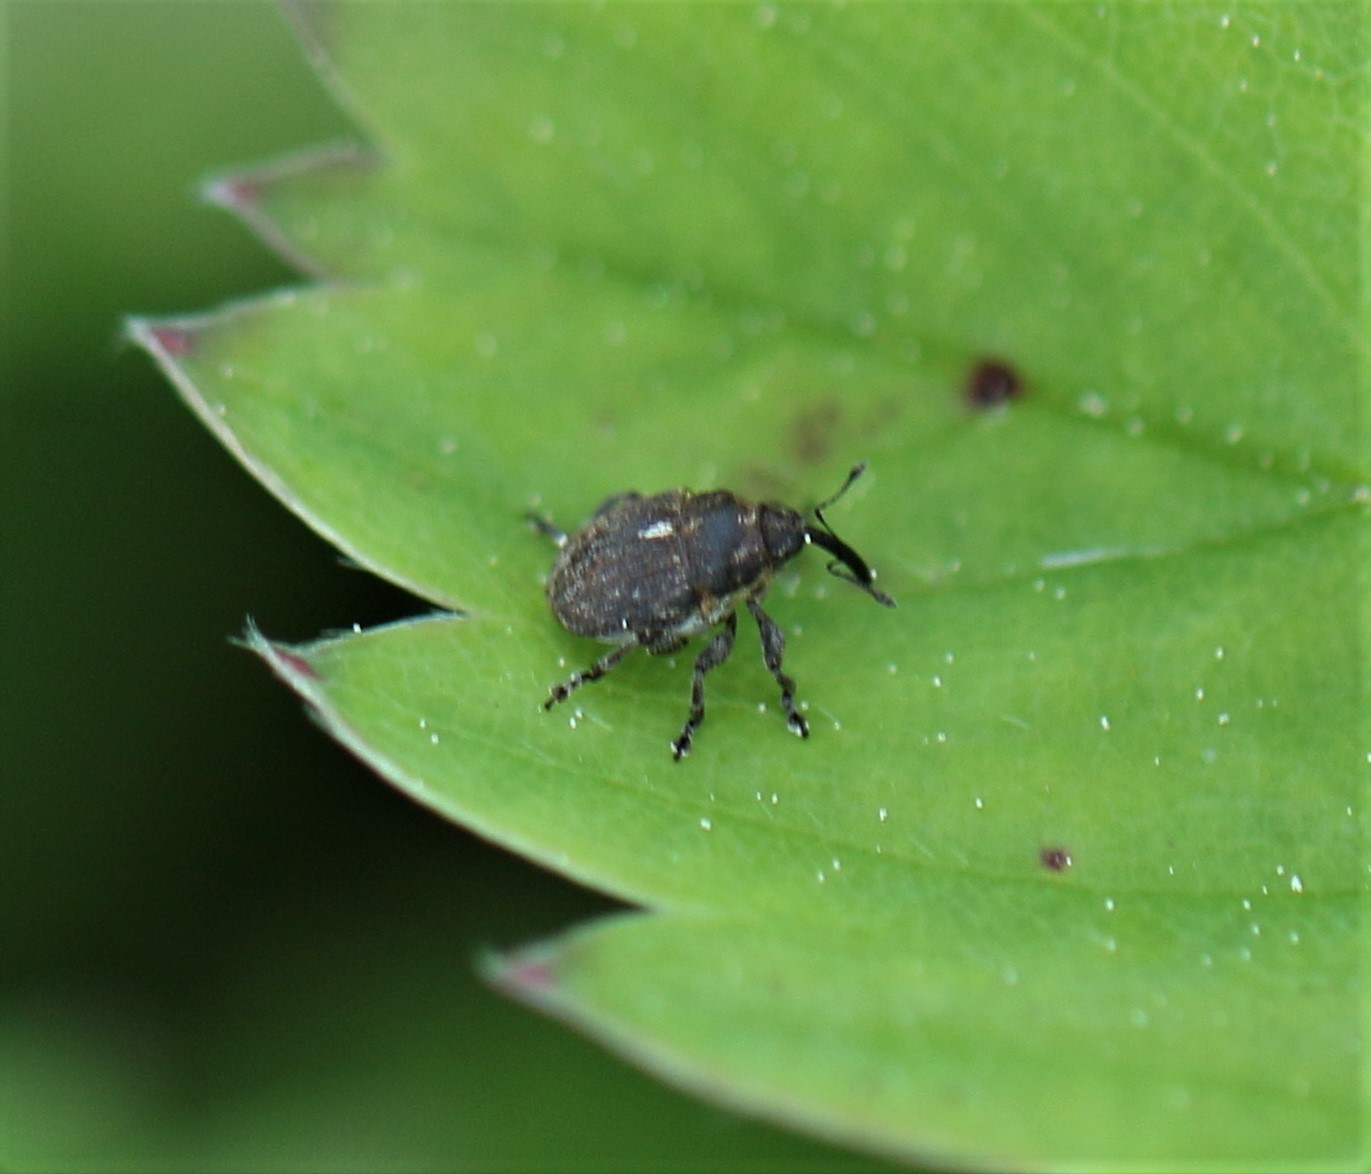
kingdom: Animalia
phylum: Arthropoda
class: Insecta
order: Coleoptera
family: Curculionidae
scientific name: Curculionidae
